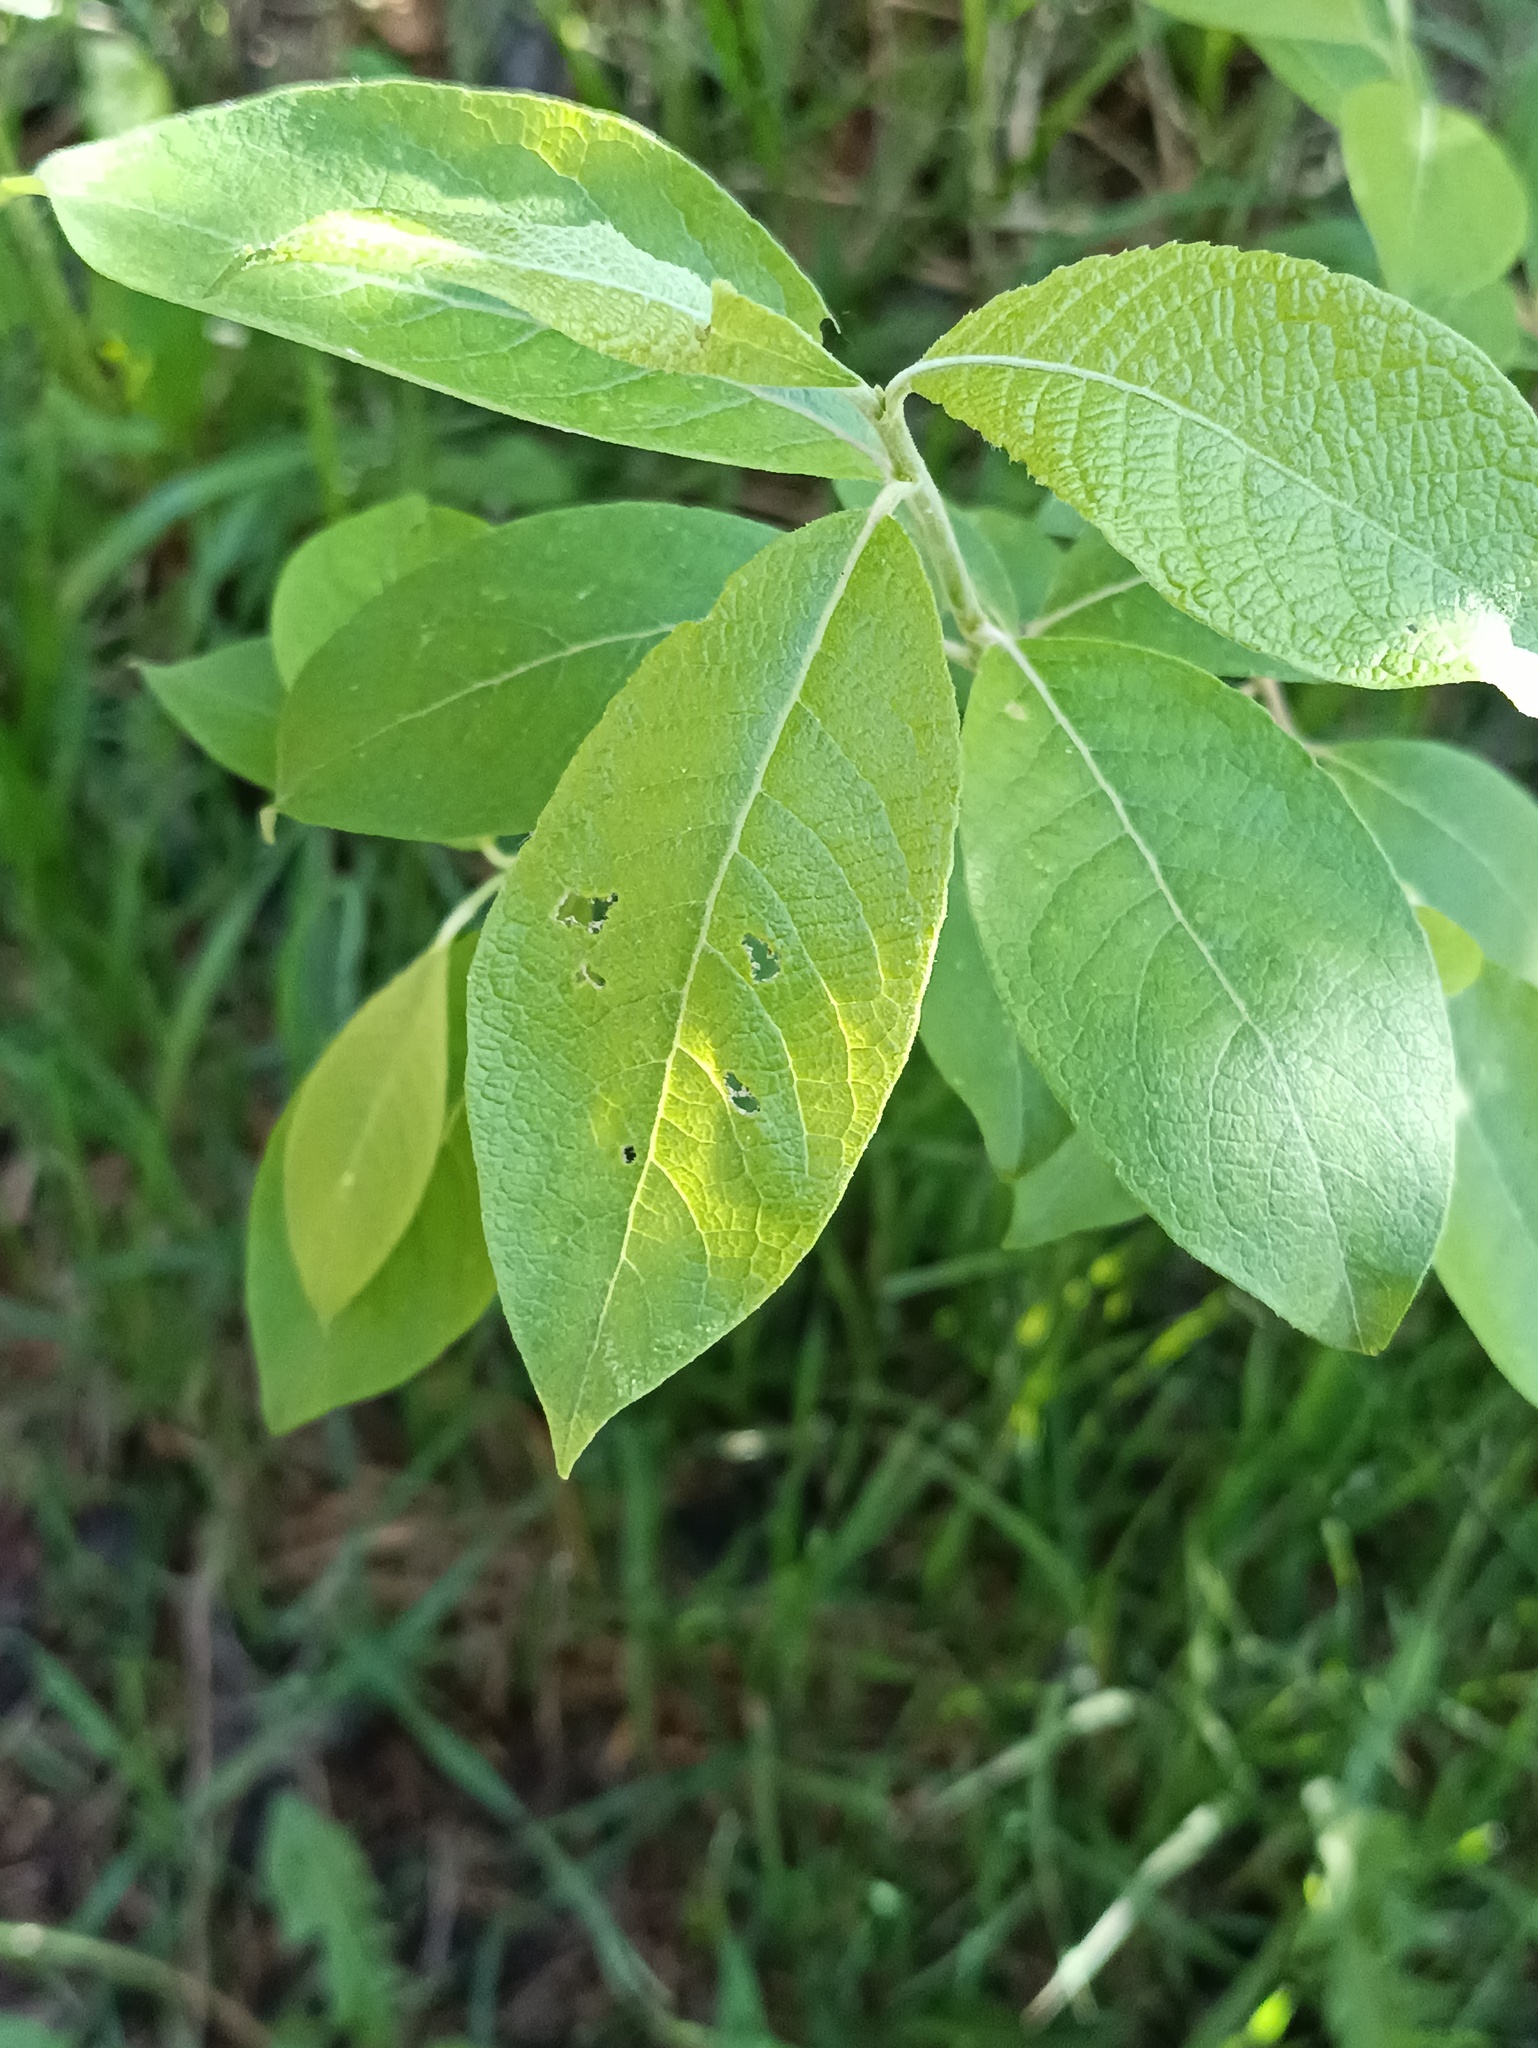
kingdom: Plantae
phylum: Tracheophyta
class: Magnoliopsida
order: Malpighiales
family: Salicaceae
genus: Salix
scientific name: Salix caprea
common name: Goat willow
